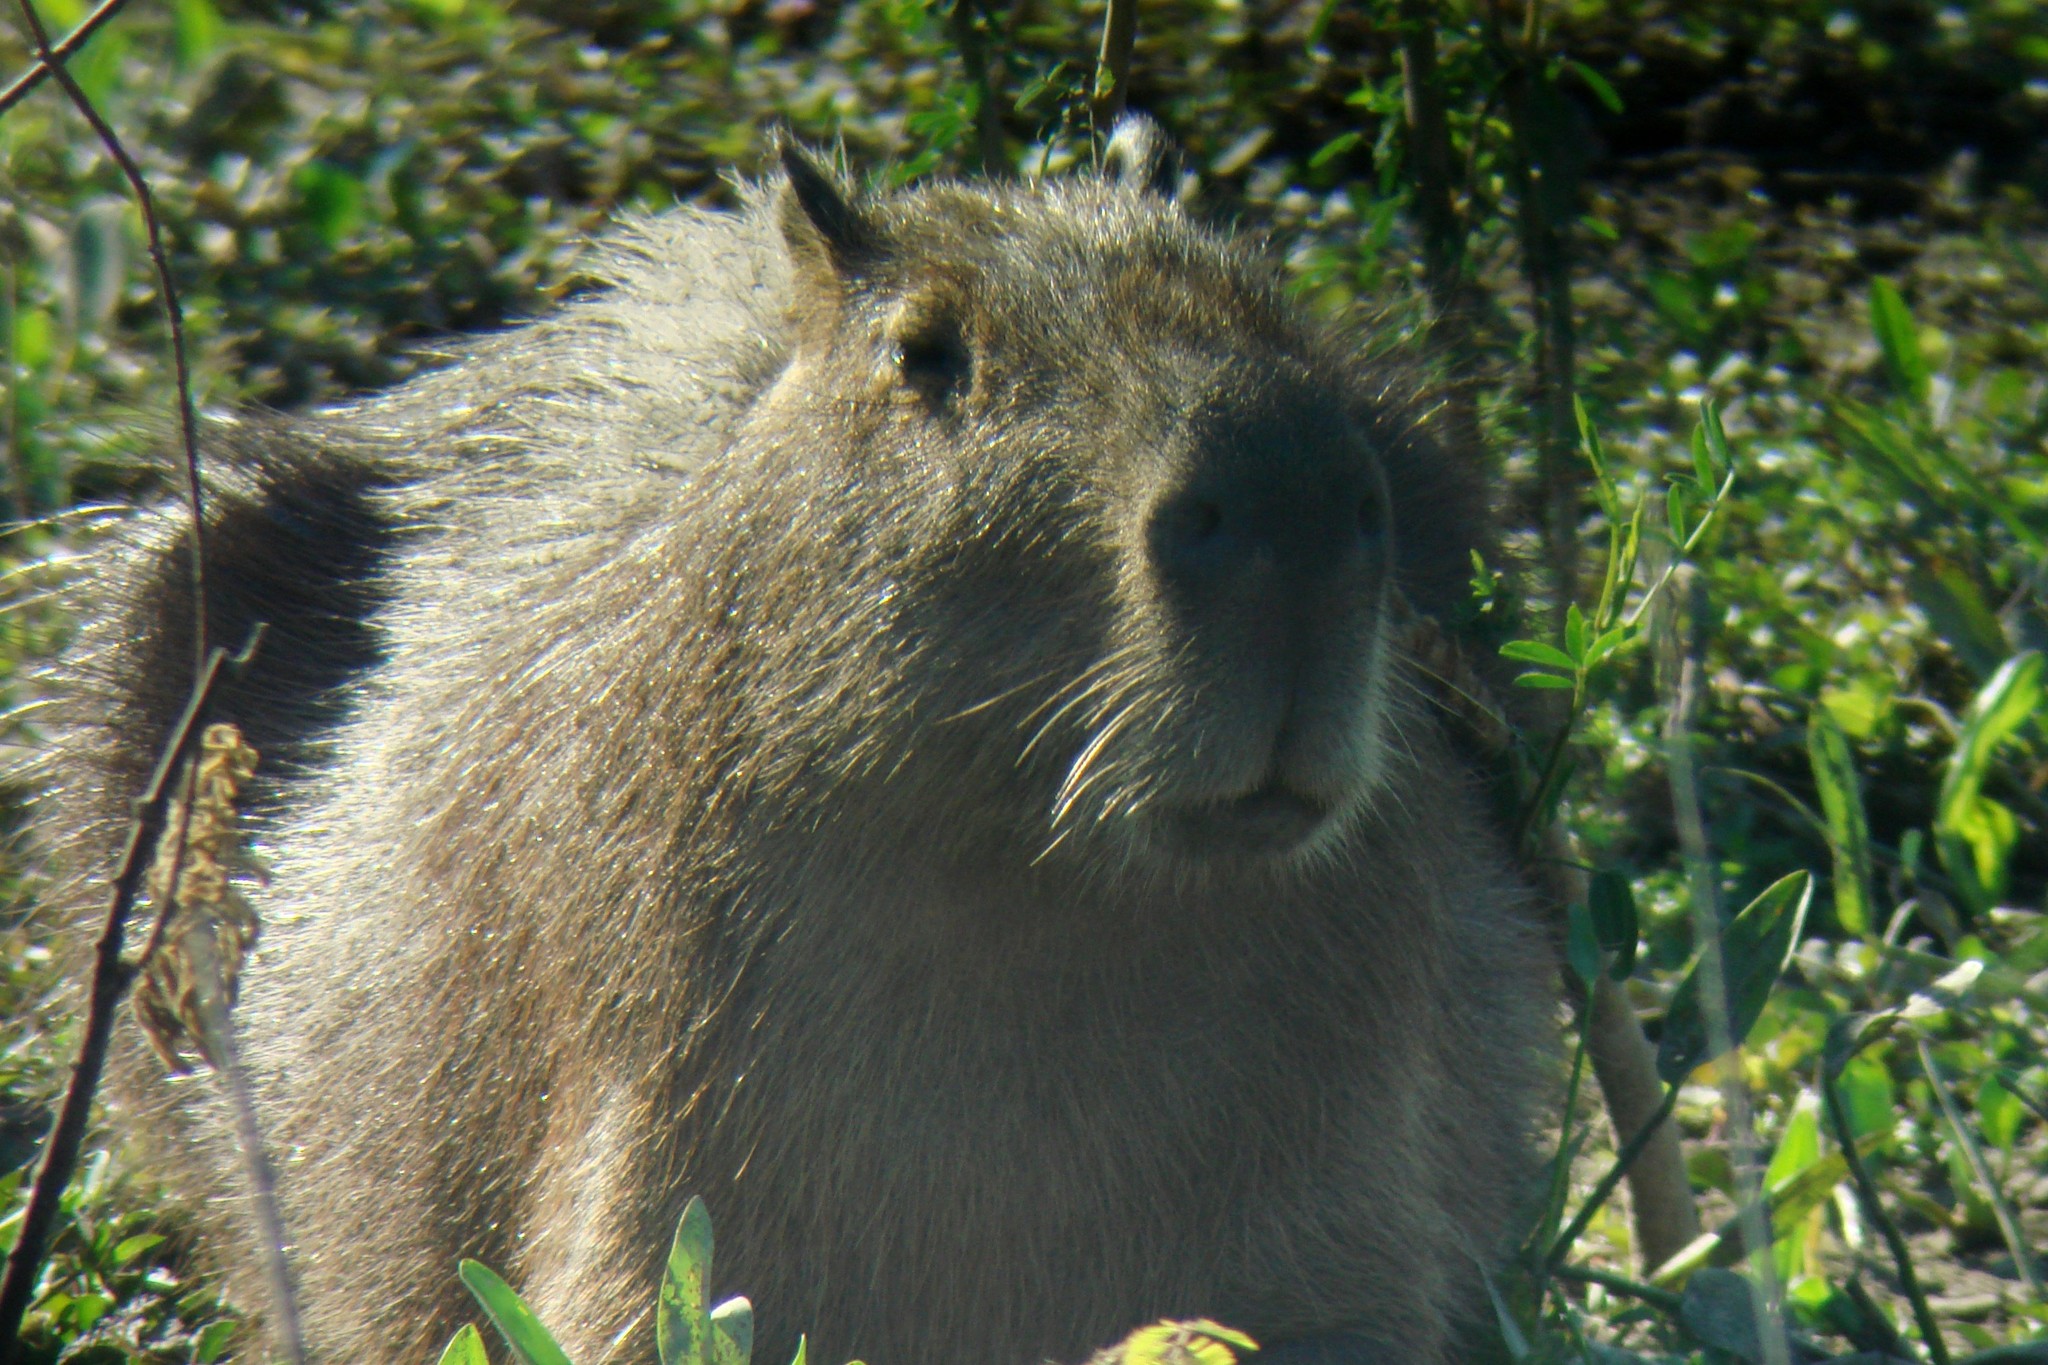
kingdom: Animalia
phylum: Chordata
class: Mammalia
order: Rodentia
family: Caviidae
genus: Hydrochoerus
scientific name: Hydrochoerus hydrochaeris
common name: Capybara
